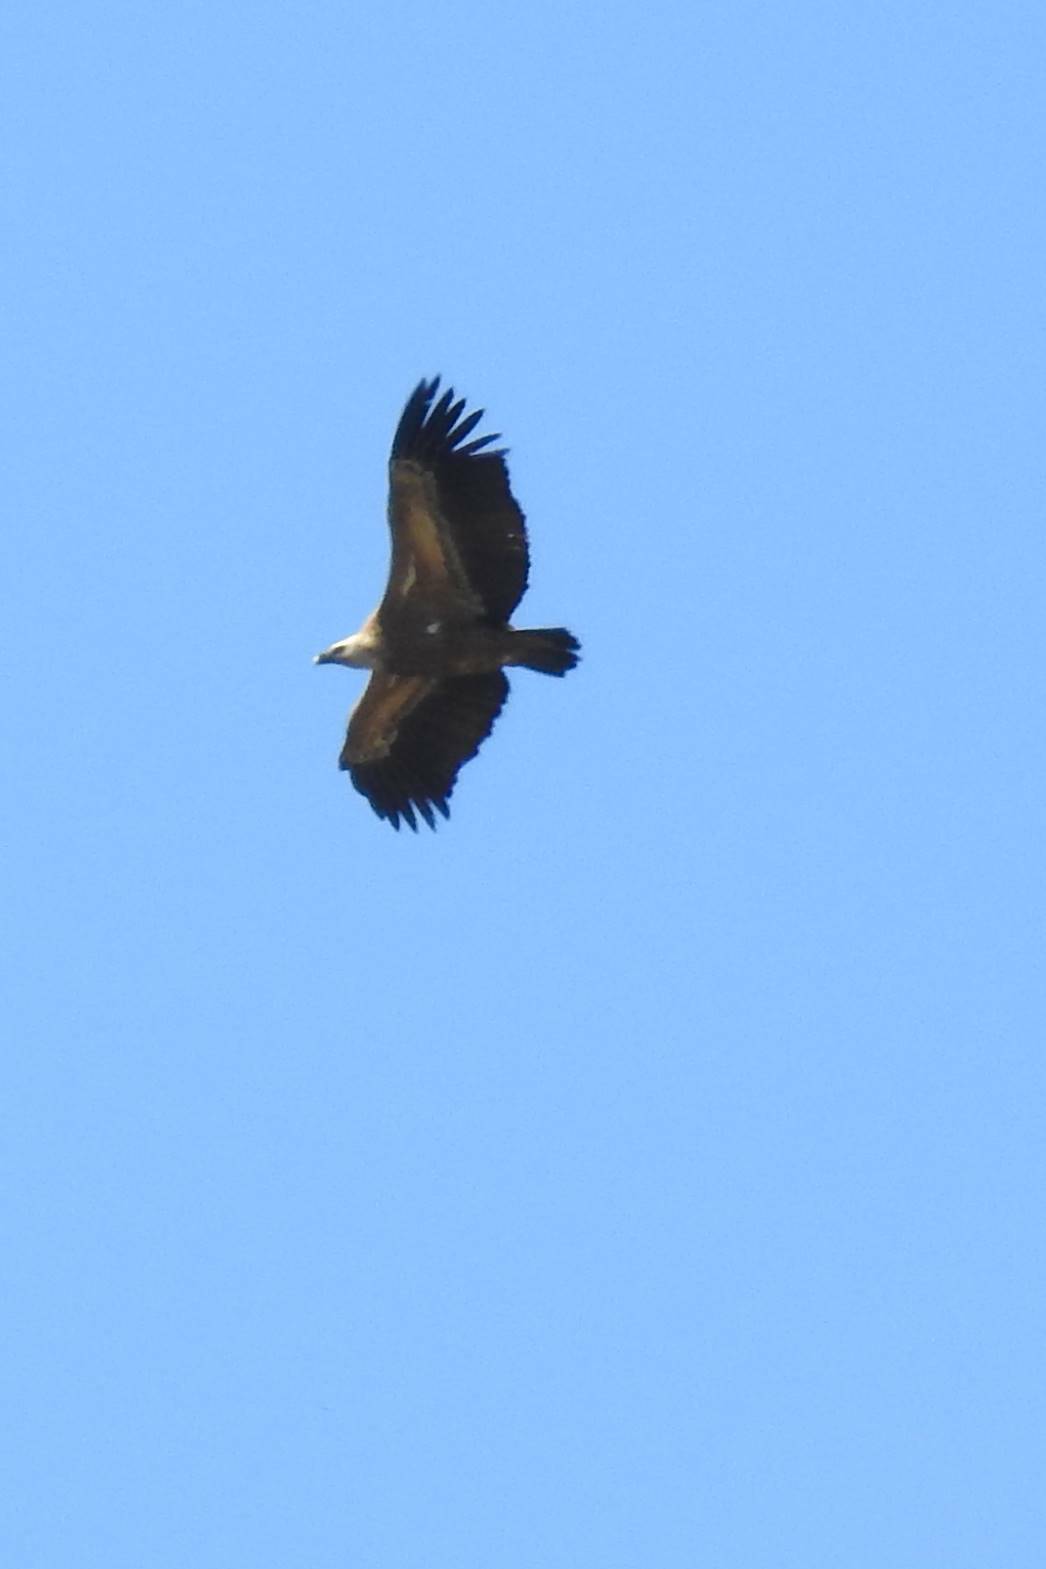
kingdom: Animalia
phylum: Chordata
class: Aves
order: Accipitriformes
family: Accipitridae
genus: Gyps
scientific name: Gyps fulvus
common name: Griffon vulture
